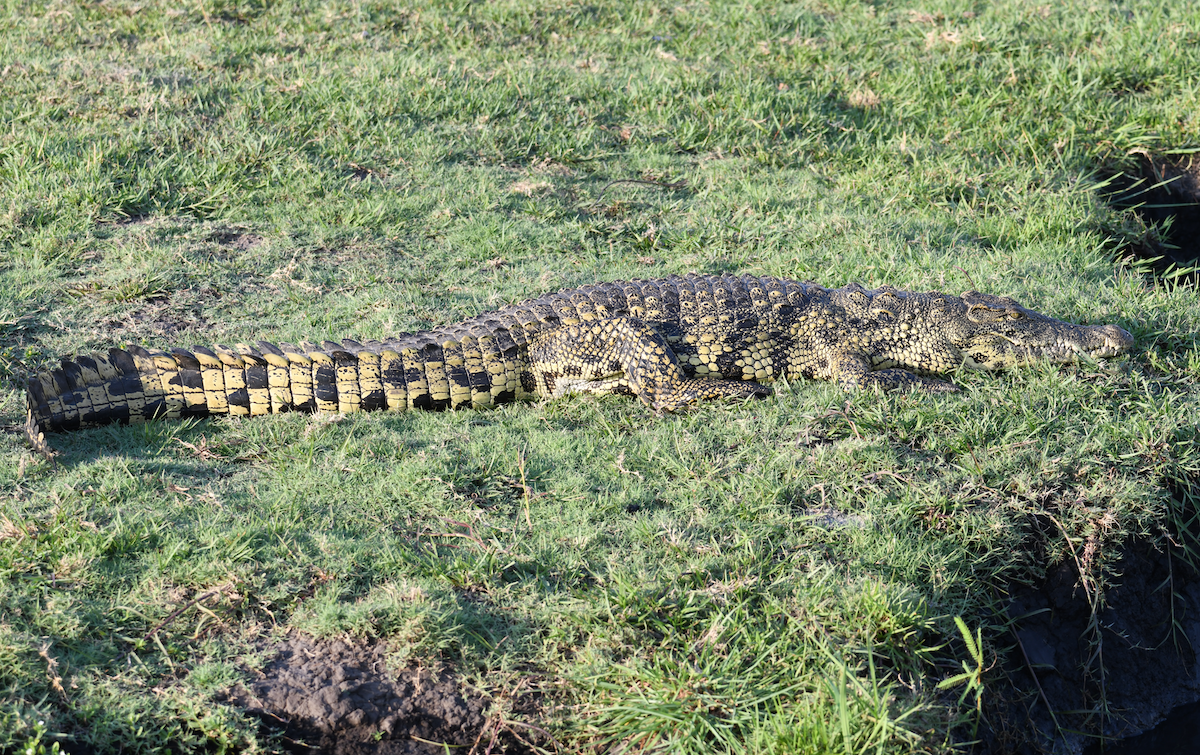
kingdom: Animalia
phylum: Chordata
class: Crocodylia
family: Crocodylidae
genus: Crocodylus
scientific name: Crocodylus niloticus
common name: Nile crocodile
